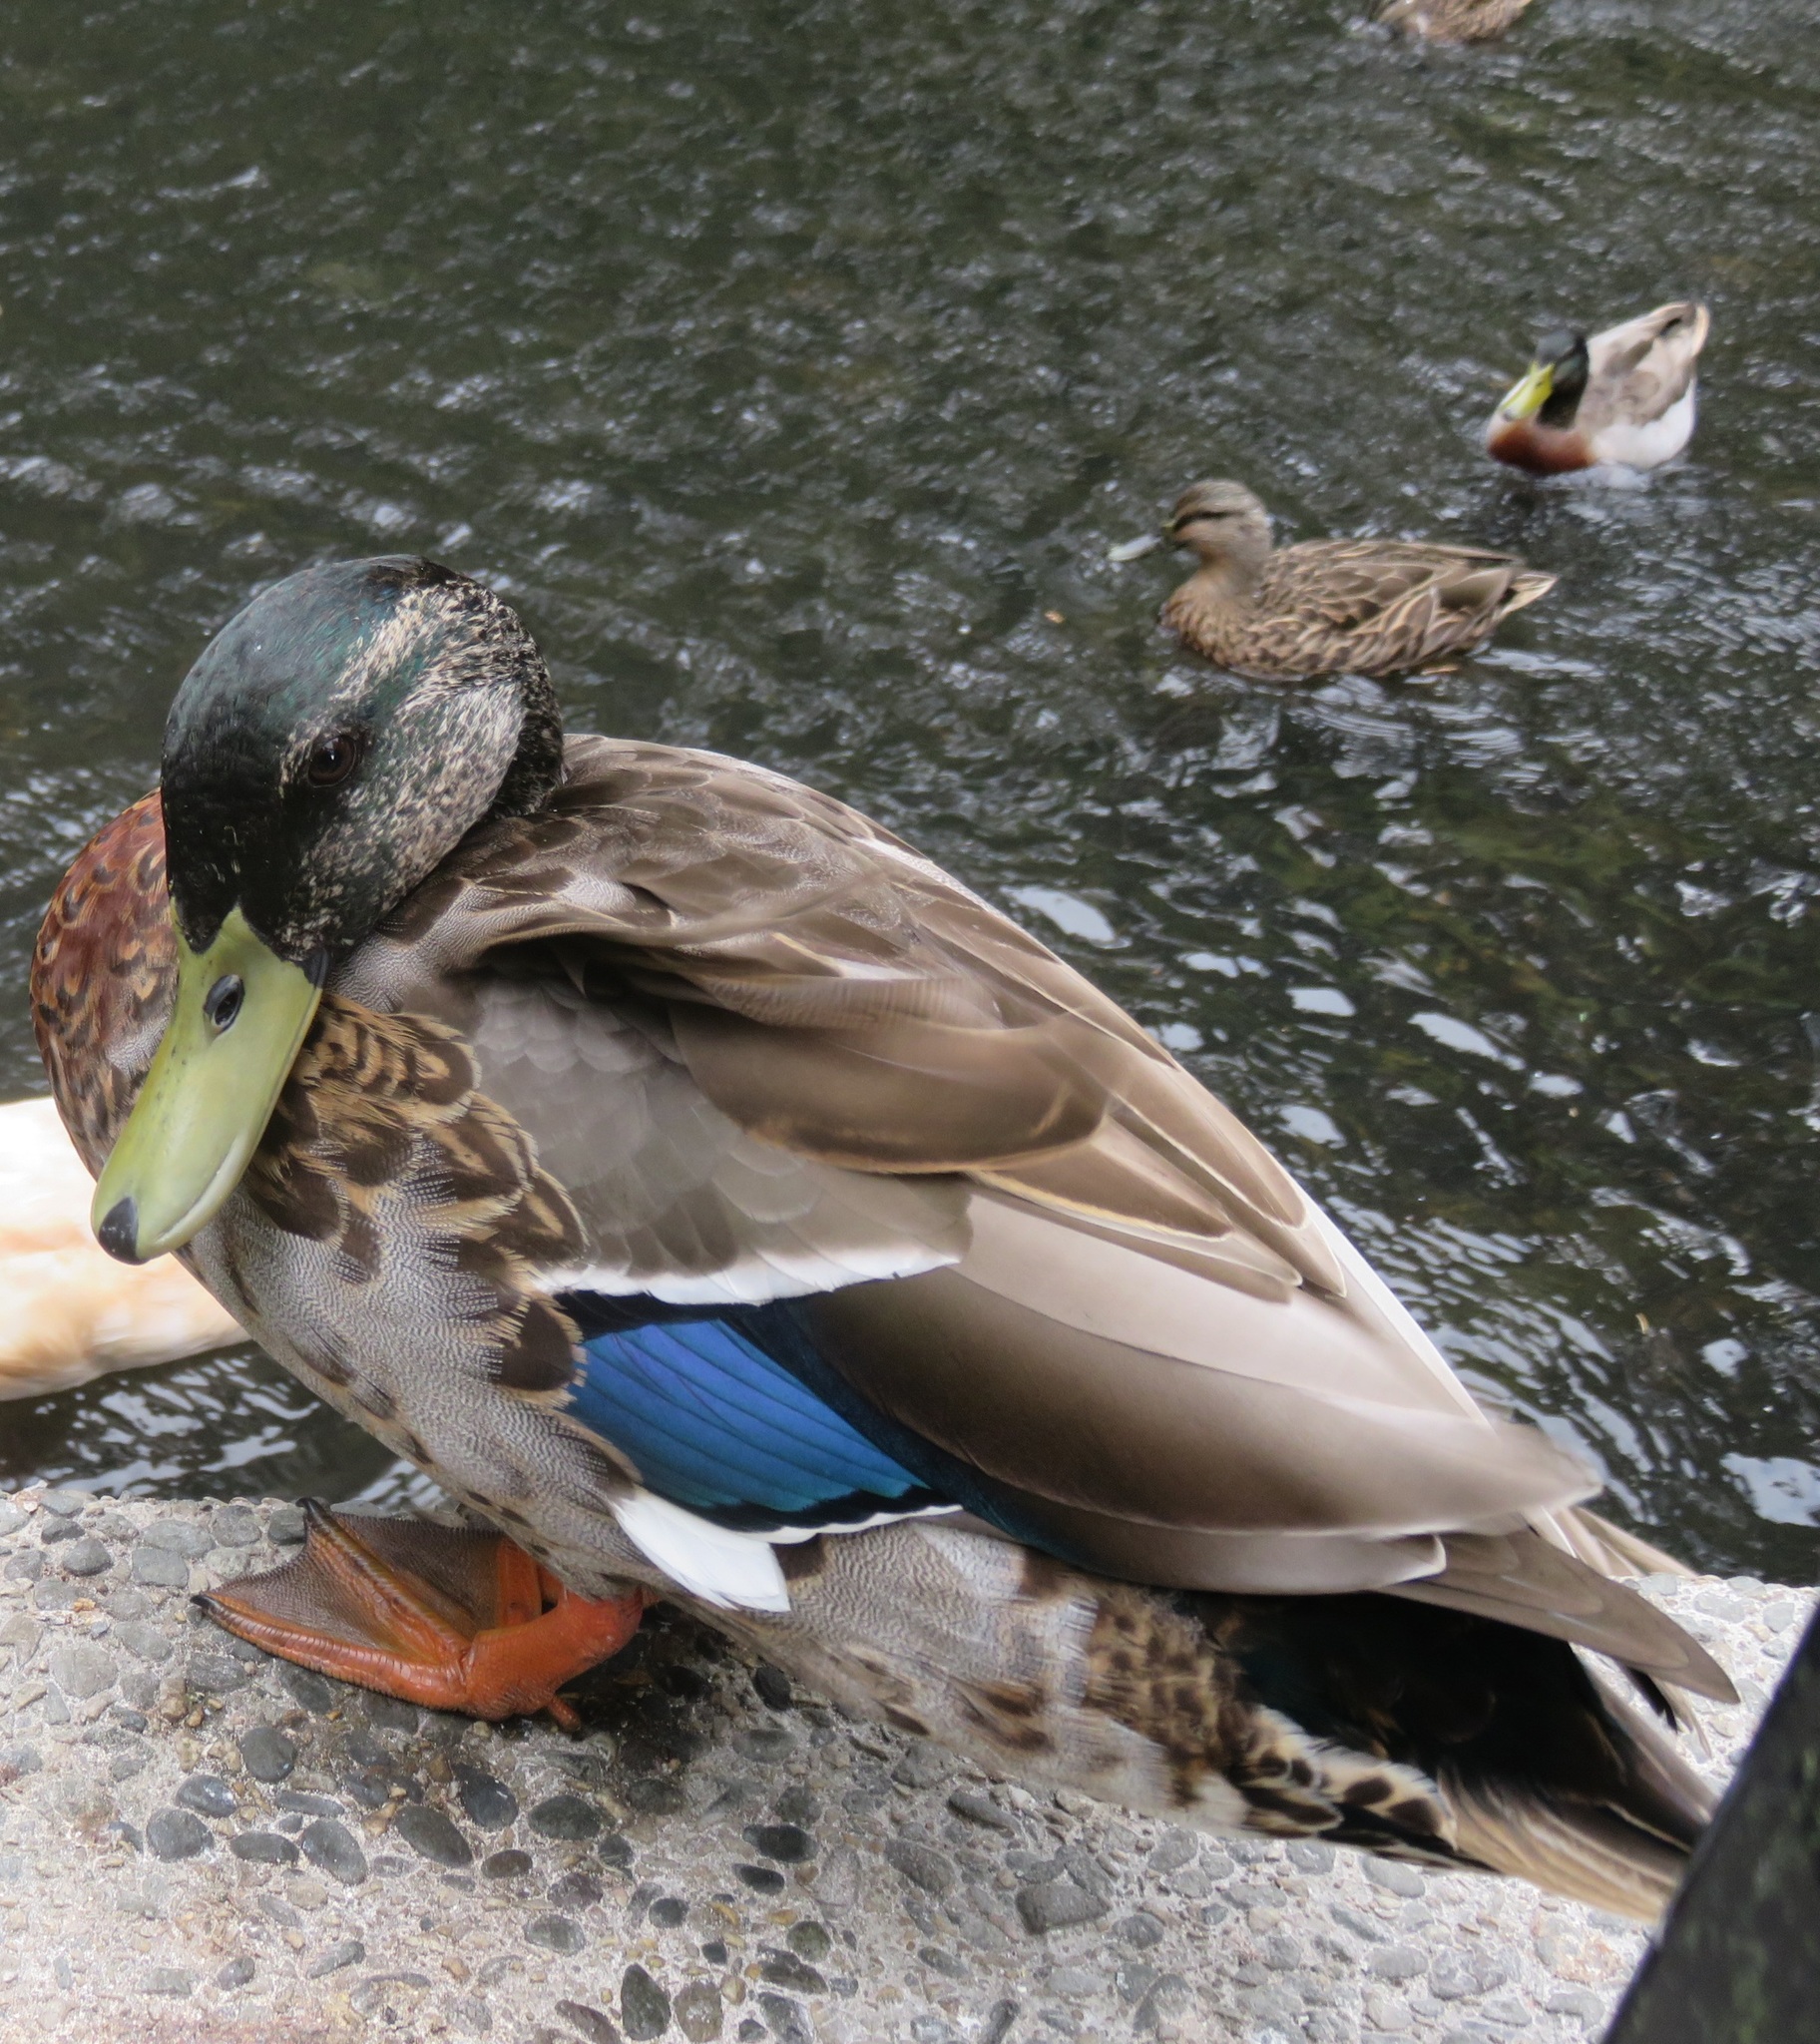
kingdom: Animalia
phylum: Chordata
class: Aves
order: Anseriformes
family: Anatidae
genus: Anas
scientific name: Anas
